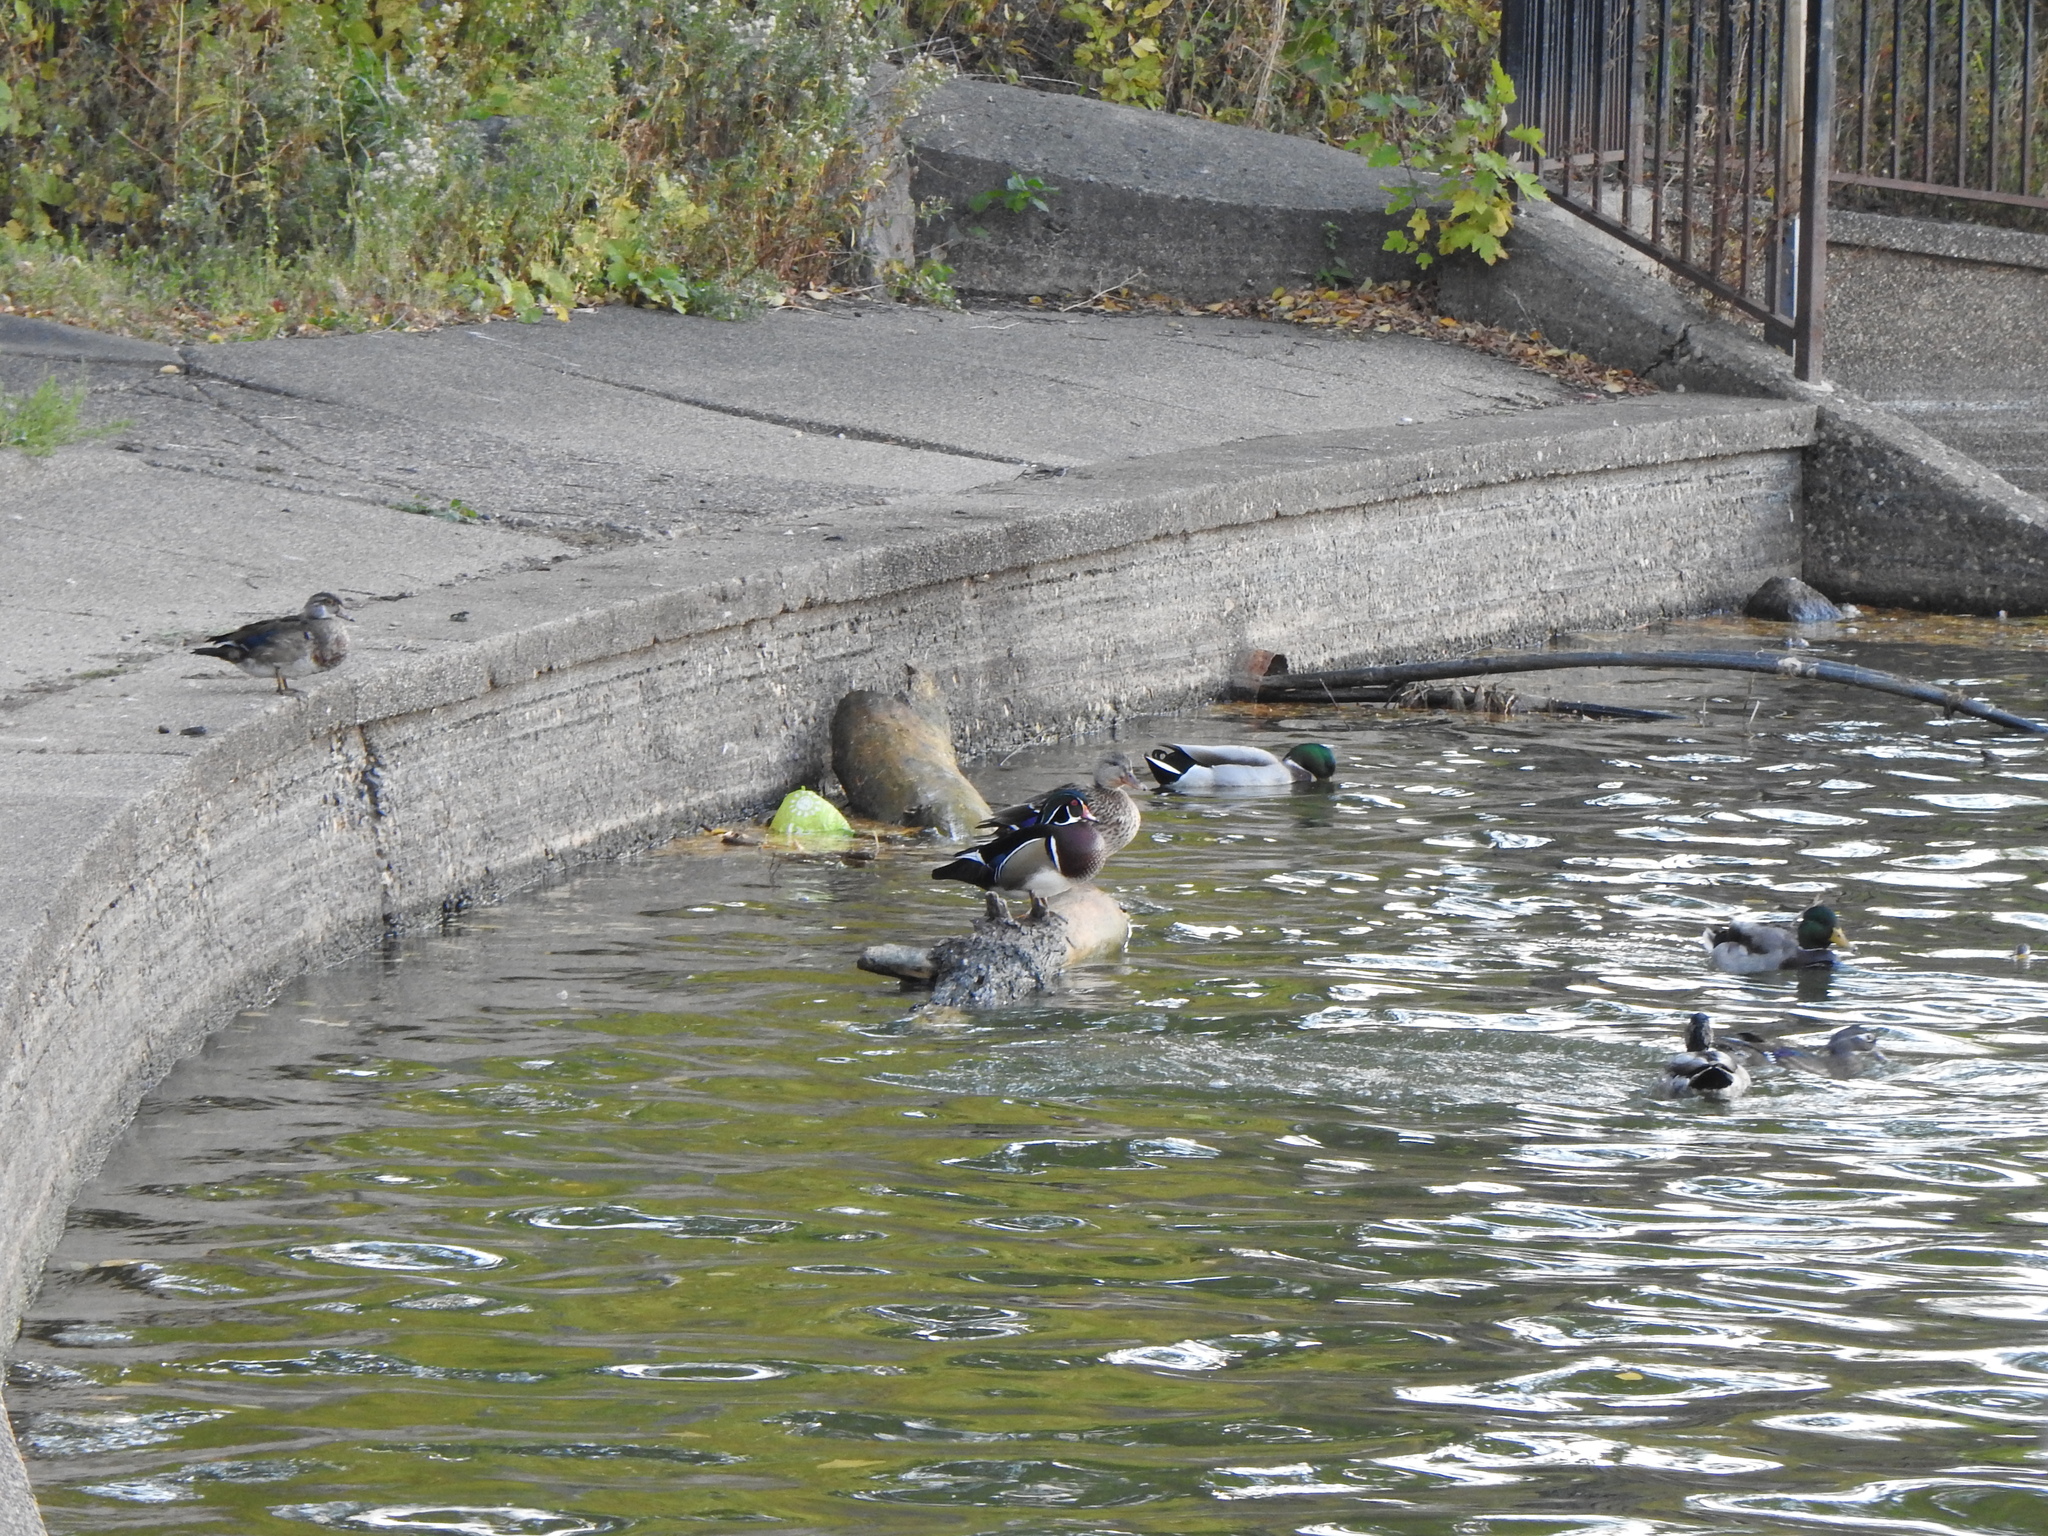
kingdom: Animalia
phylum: Chordata
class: Aves
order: Anseriformes
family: Anatidae
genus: Aix
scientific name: Aix sponsa
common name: Wood duck
